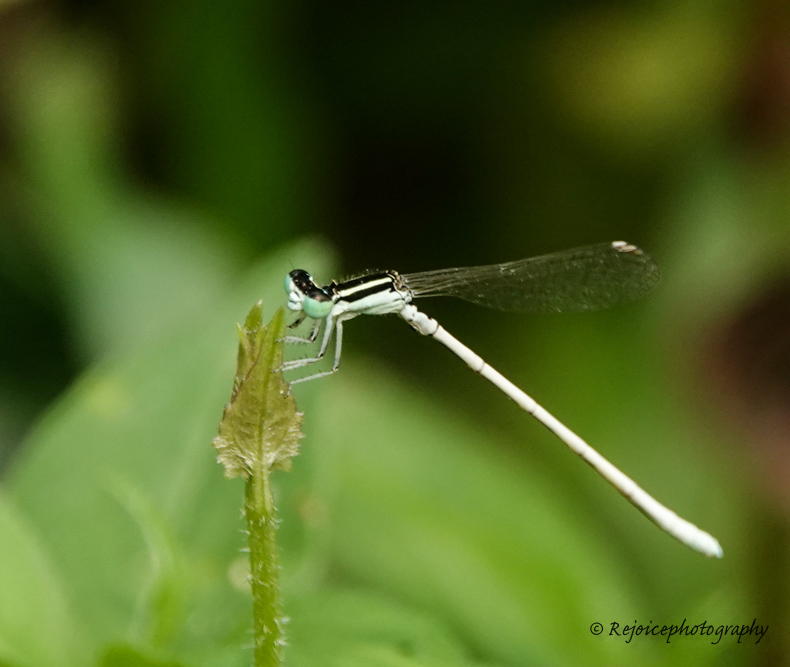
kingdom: Animalia
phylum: Arthropoda
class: Insecta
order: Odonata
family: Coenagrionidae
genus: Agriocnemis
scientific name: Agriocnemis lacteola
